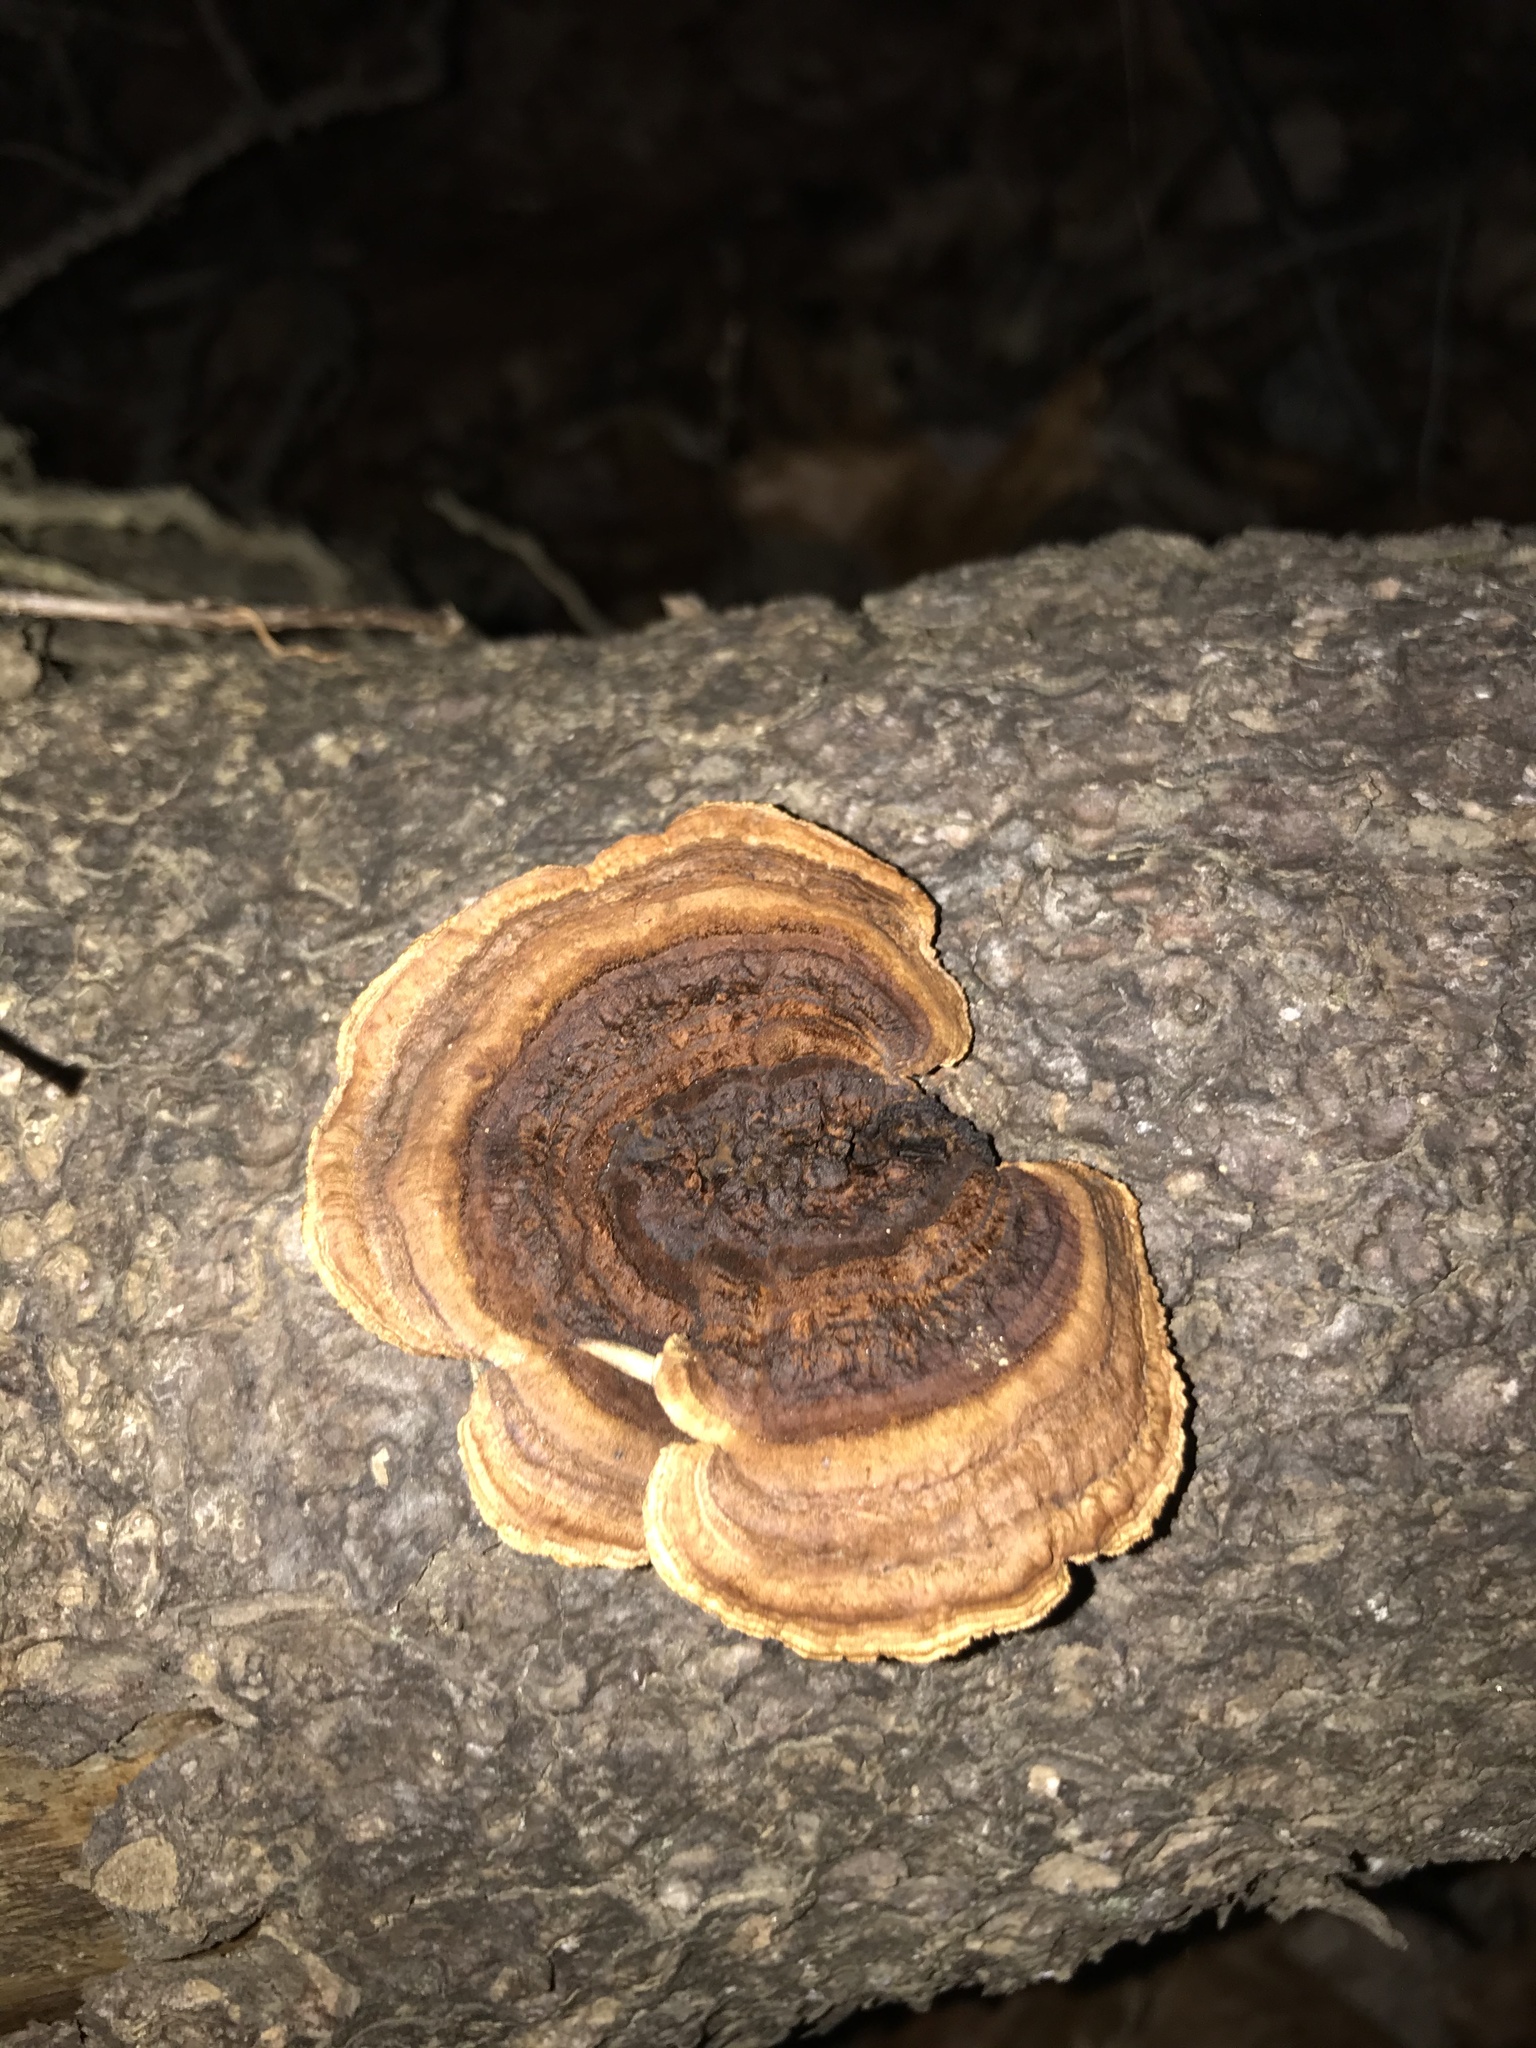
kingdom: Fungi
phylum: Basidiomycota
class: Agaricomycetes
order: Gloeophyllales
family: Gloeophyllaceae
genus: Gloeophyllum
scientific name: Gloeophyllum sepiarium
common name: Conifer mazegill
